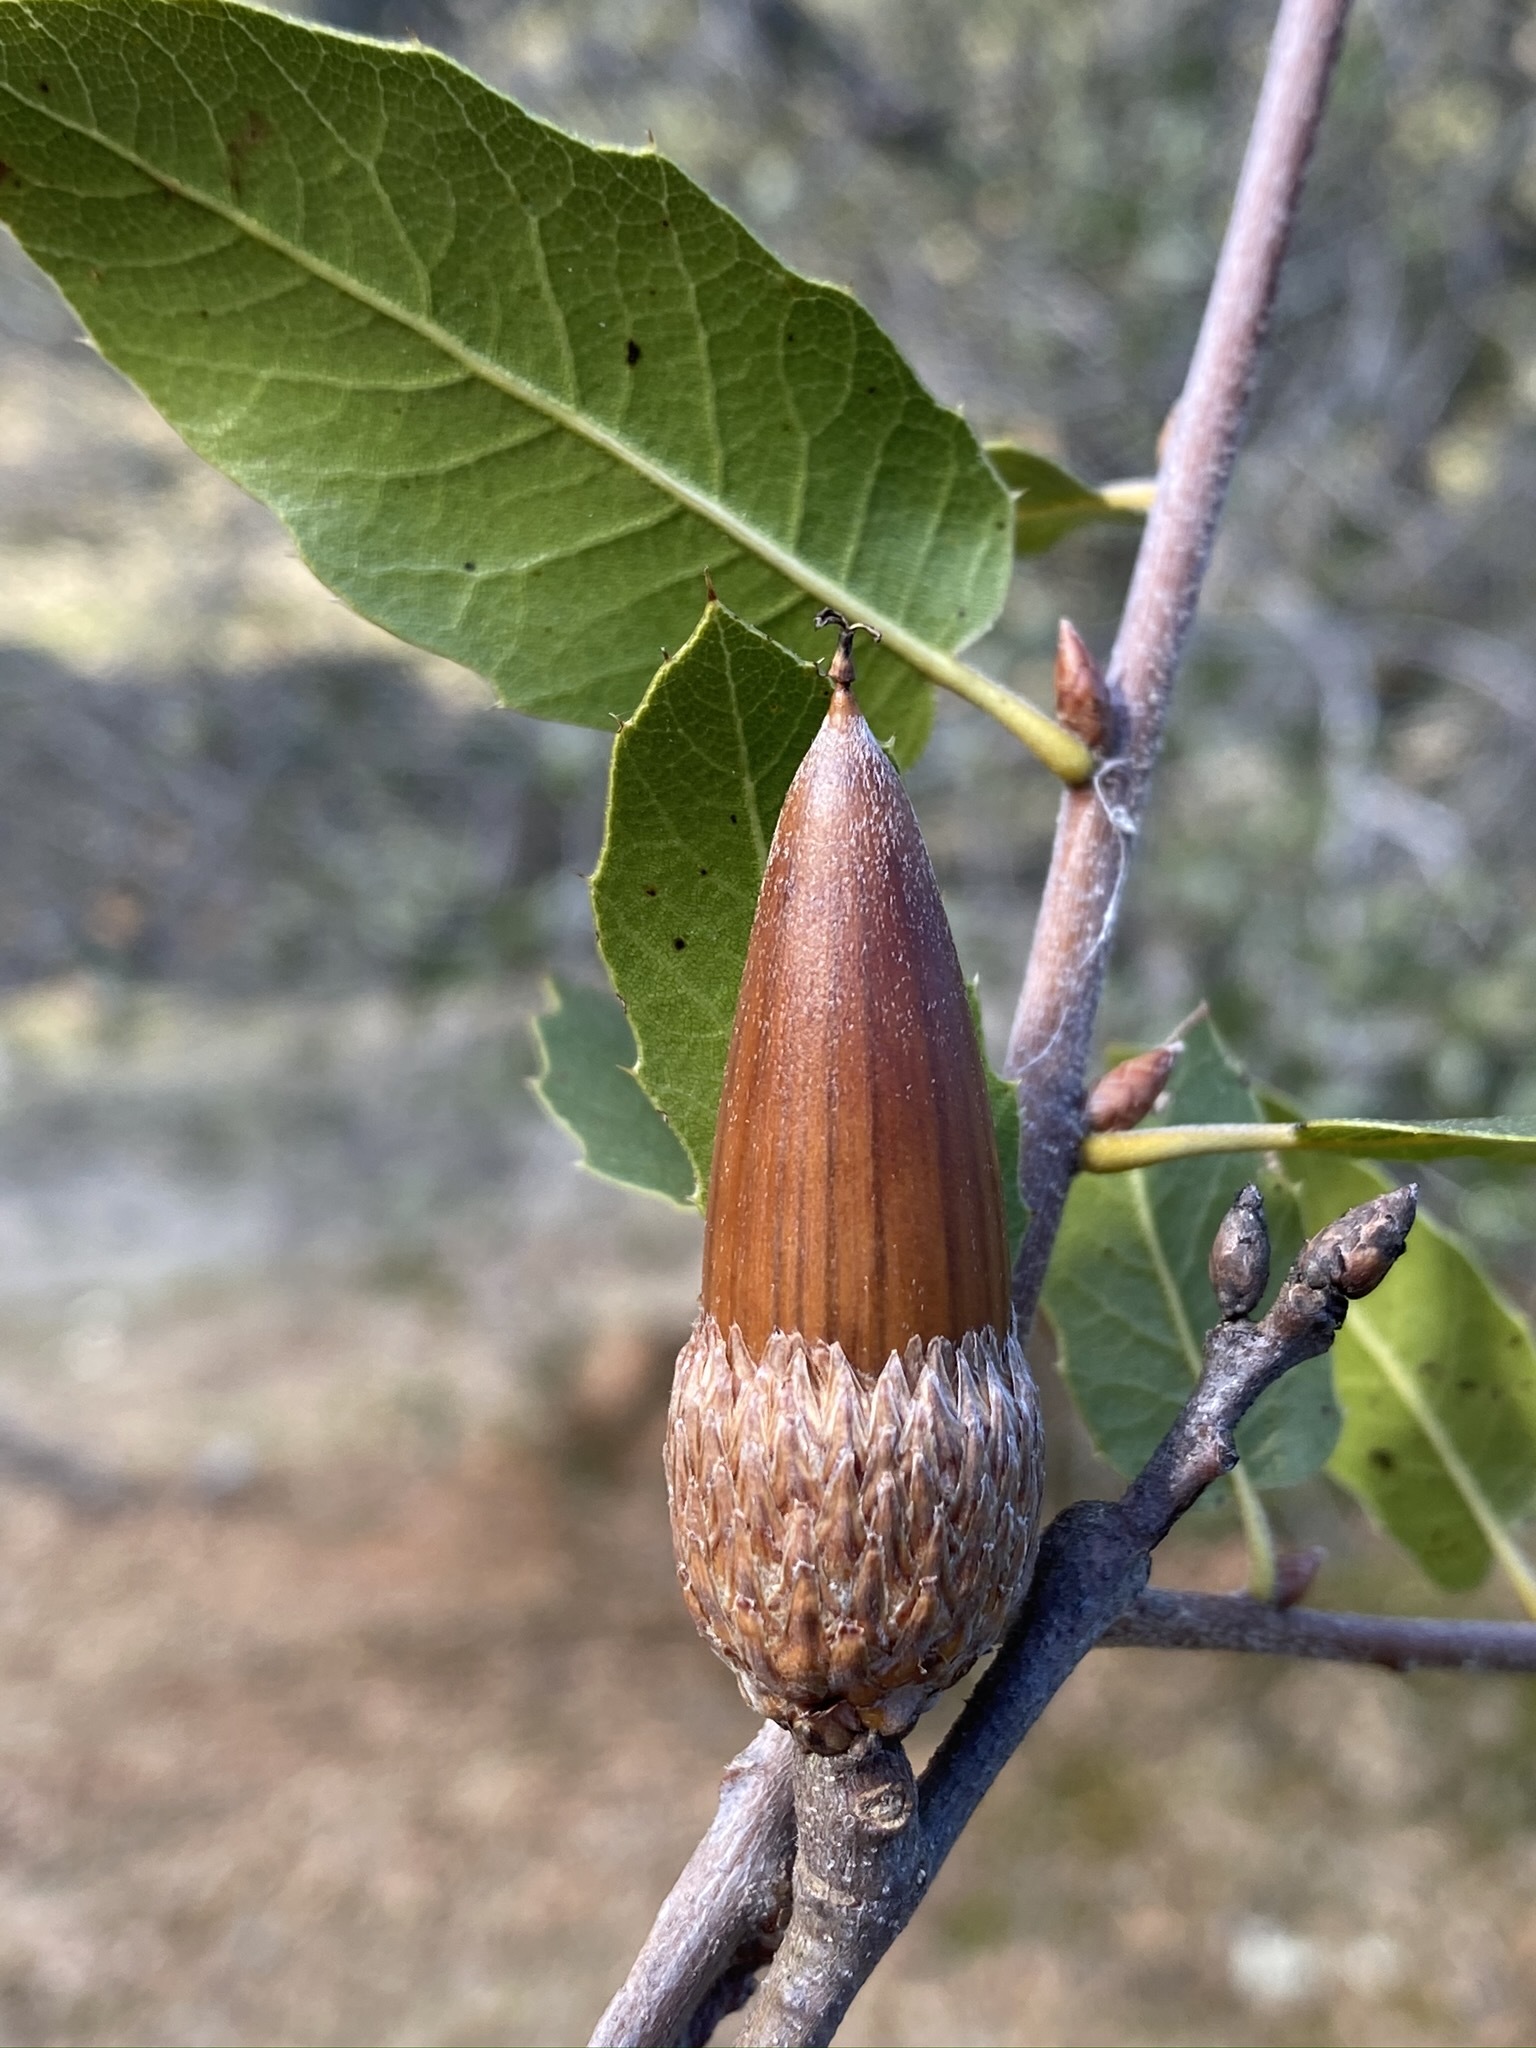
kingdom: Plantae
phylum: Tracheophyta
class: Magnoliopsida
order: Fagales
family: Fagaceae
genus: Quercus
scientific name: Quercus wislizeni
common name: Interior live oak
